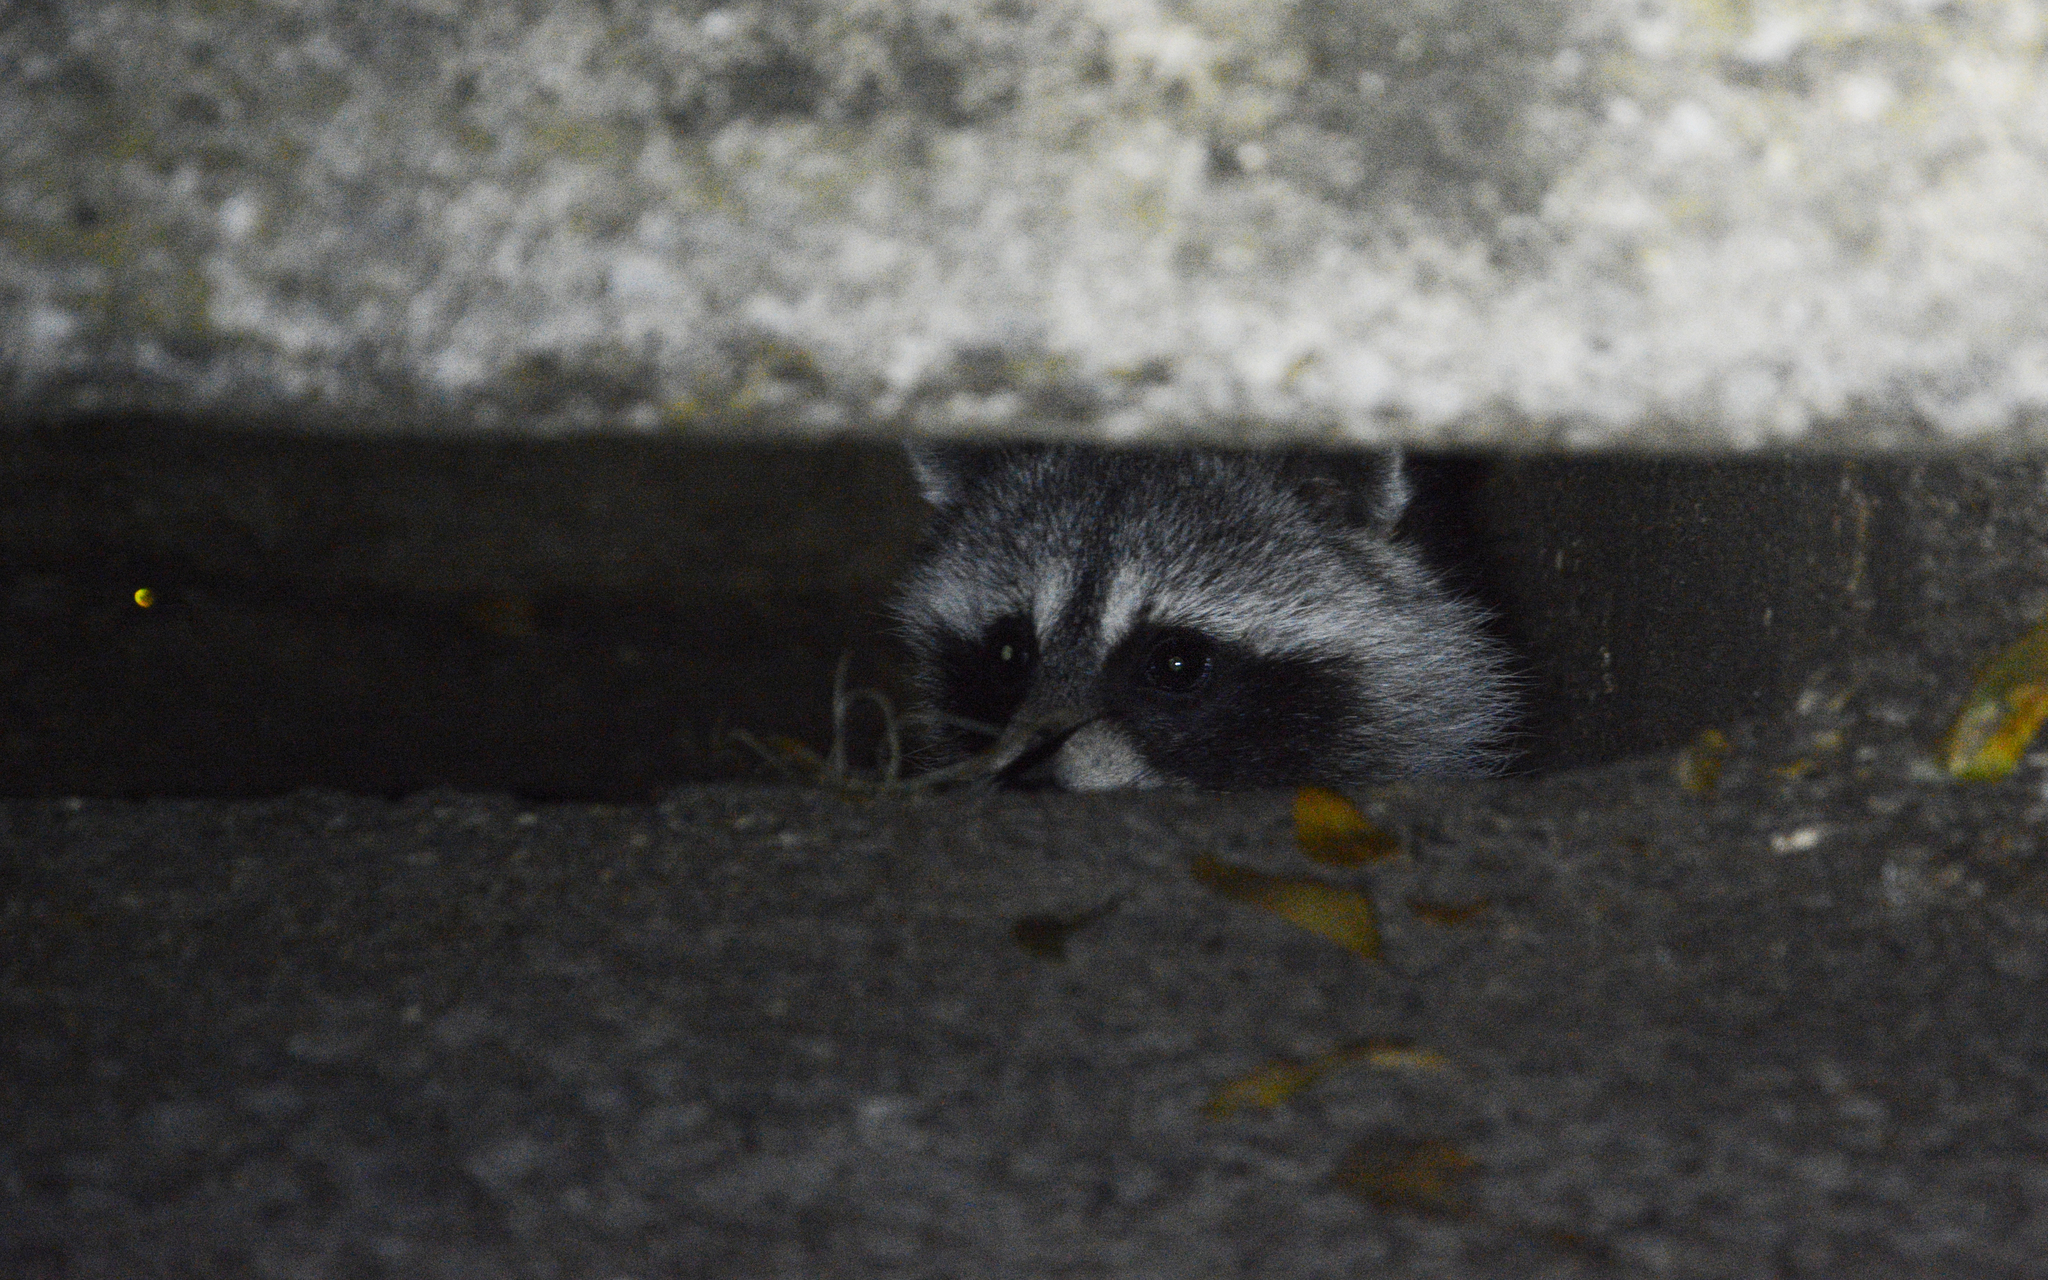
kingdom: Animalia
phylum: Chordata
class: Mammalia
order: Carnivora
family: Procyonidae
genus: Procyon
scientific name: Procyon lotor
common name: Raccoon
